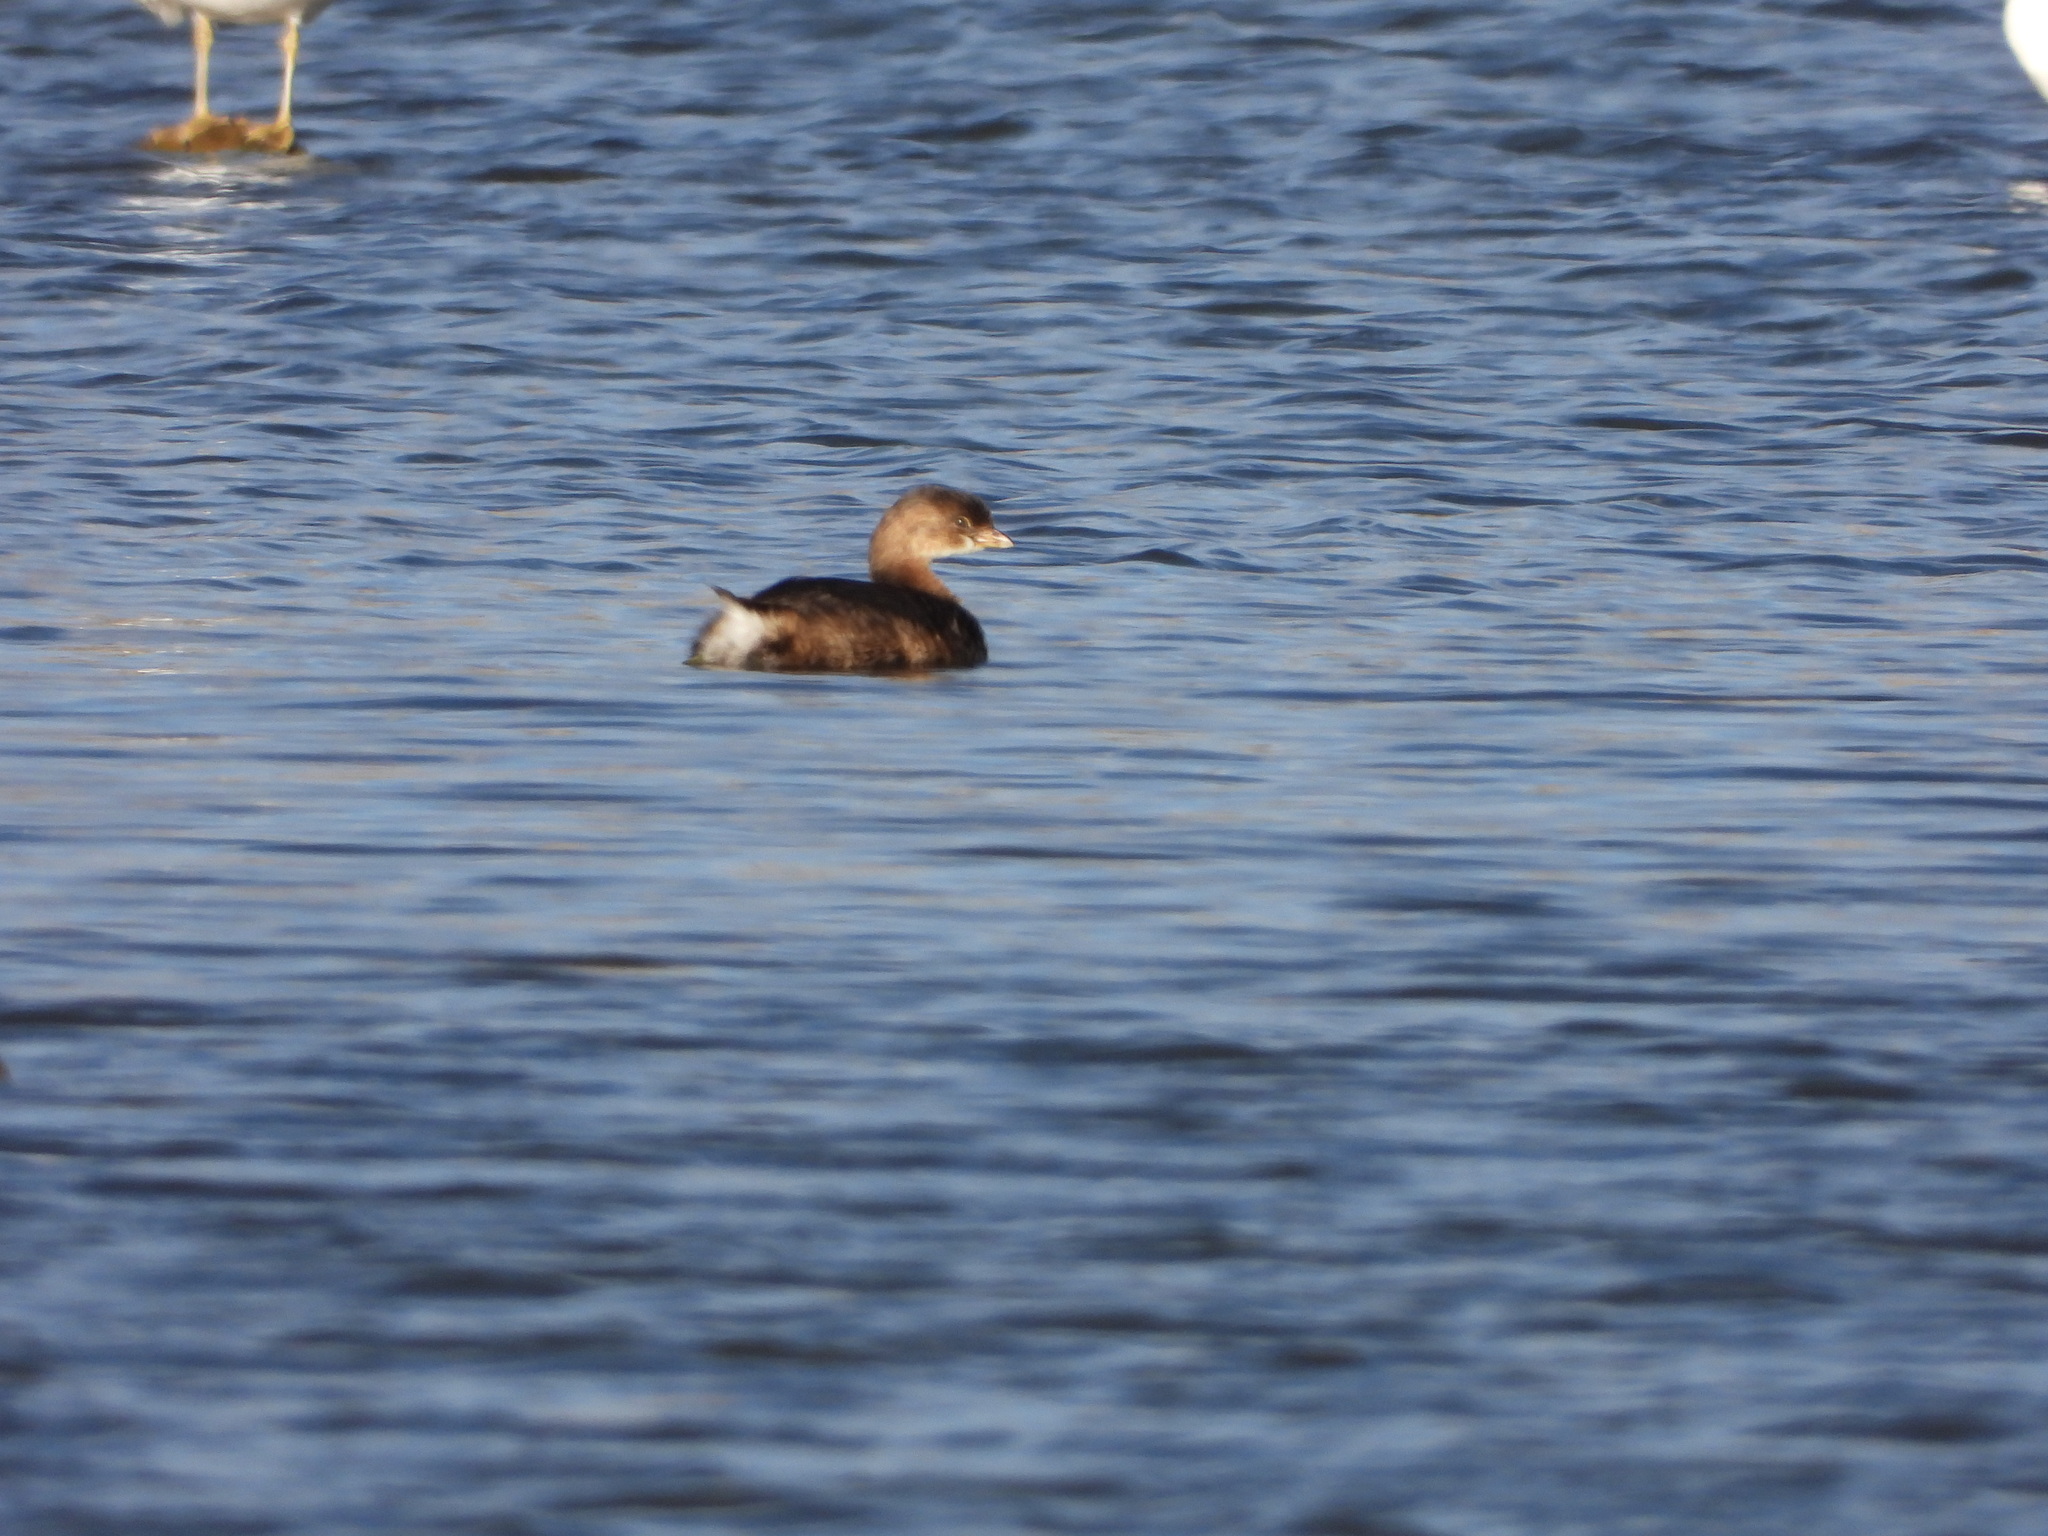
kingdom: Animalia
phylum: Chordata
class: Aves
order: Podicipediformes
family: Podicipedidae
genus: Podilymbus
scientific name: Podilymbus podiceps
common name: Pied-billed grebe
